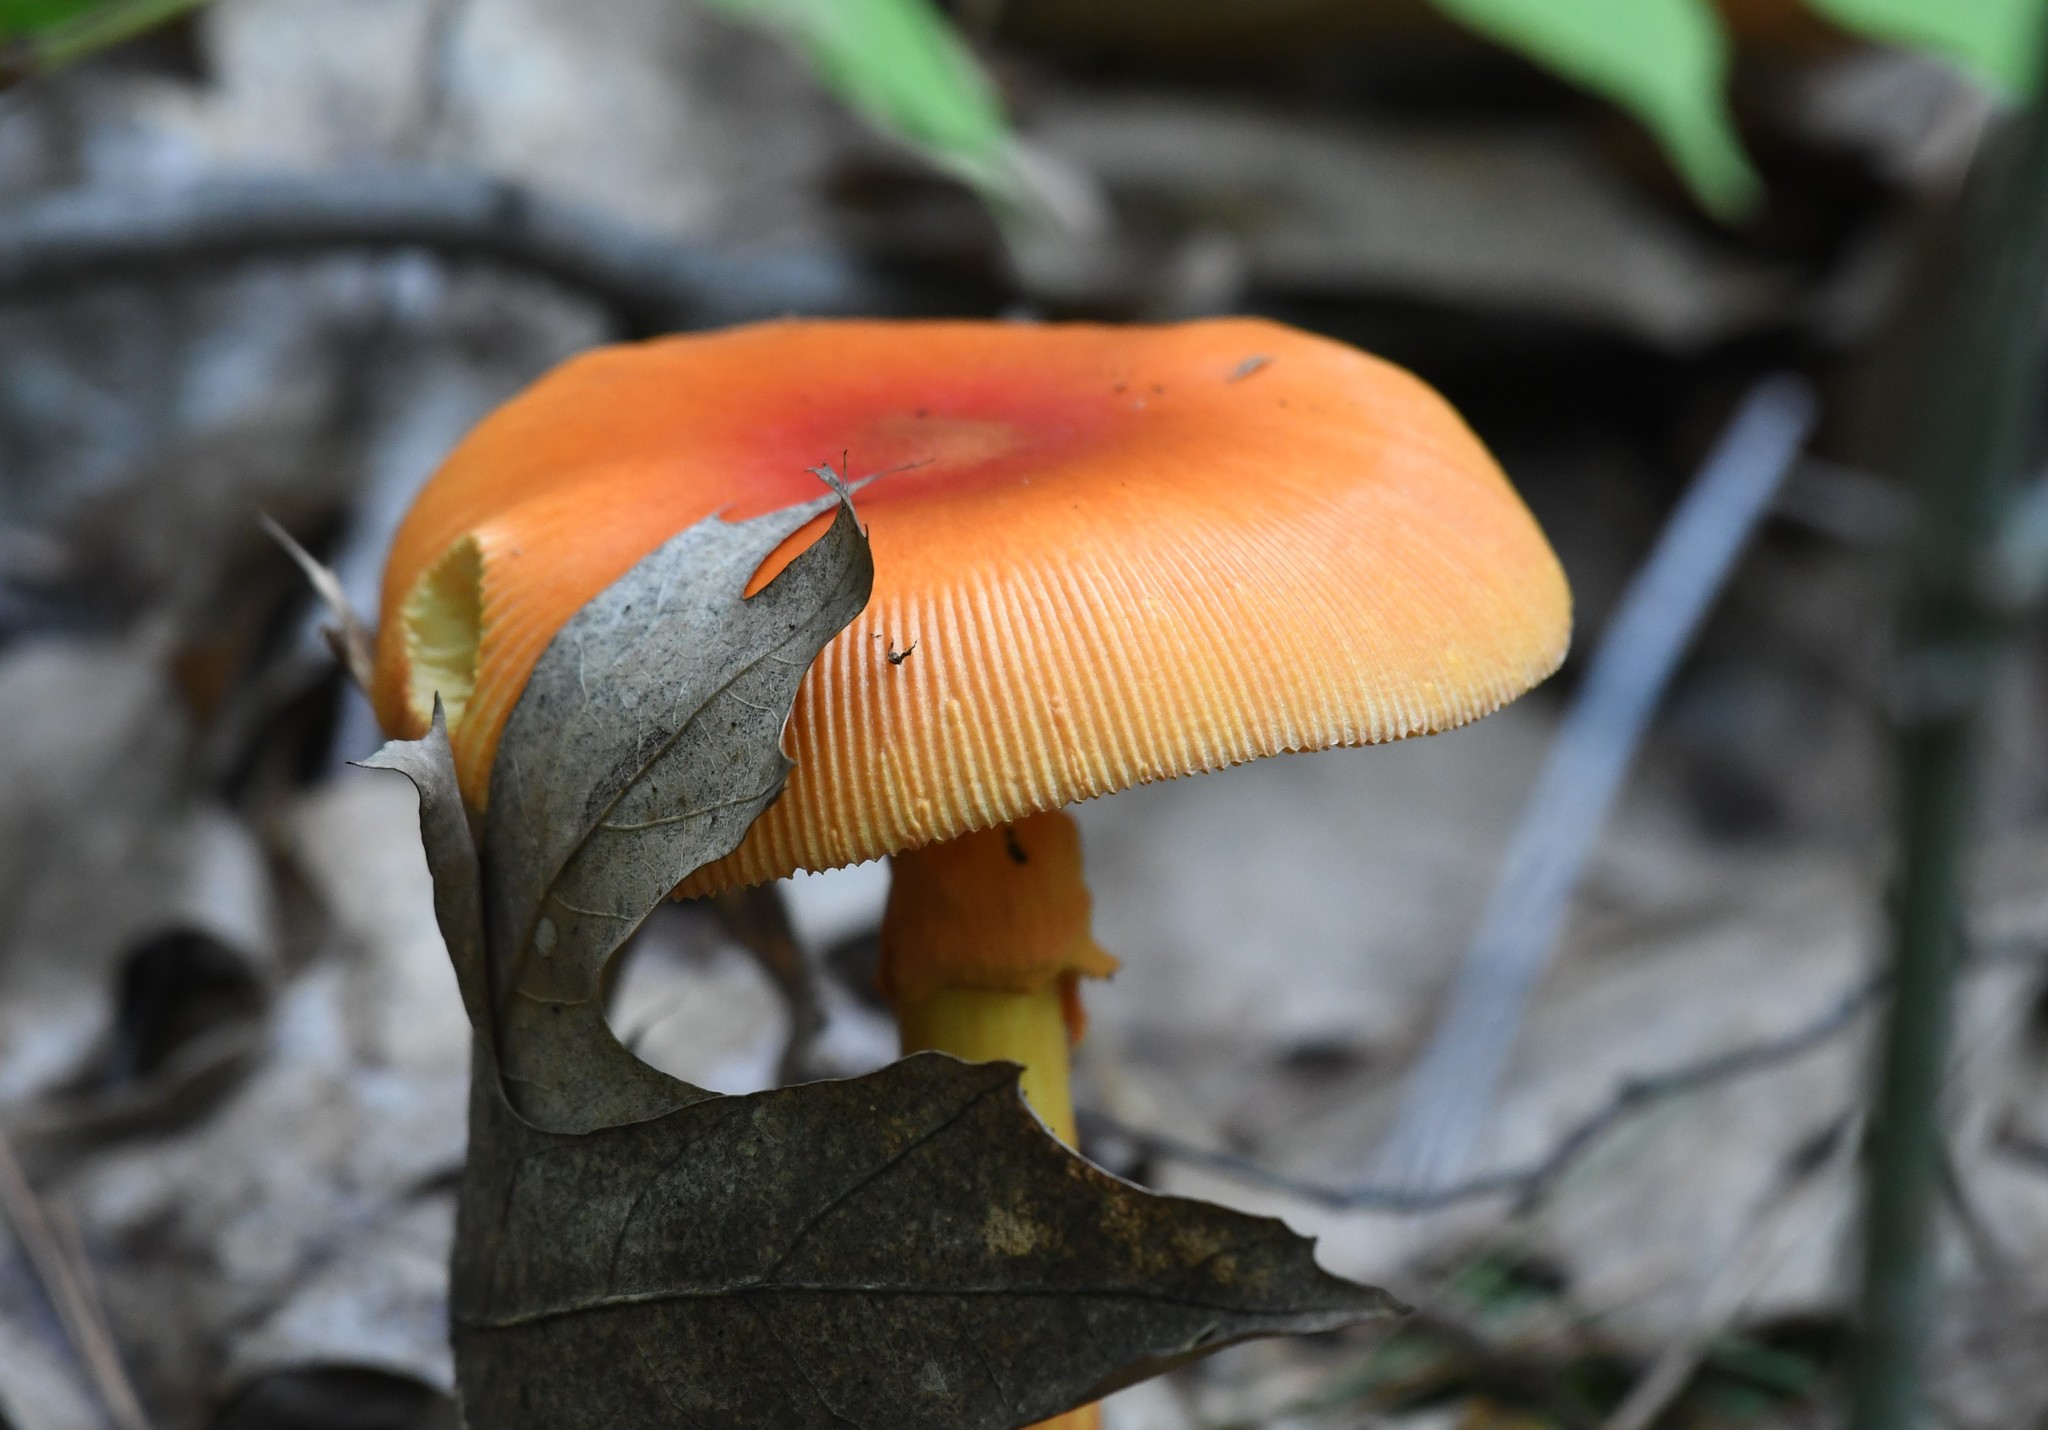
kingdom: Fungi
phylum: Basidiomycota
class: Agaricomycetes
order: Agaricales
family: Amanitaceae
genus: Amanita
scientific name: Amanita jacksonii
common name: Jackson's slender caesar
